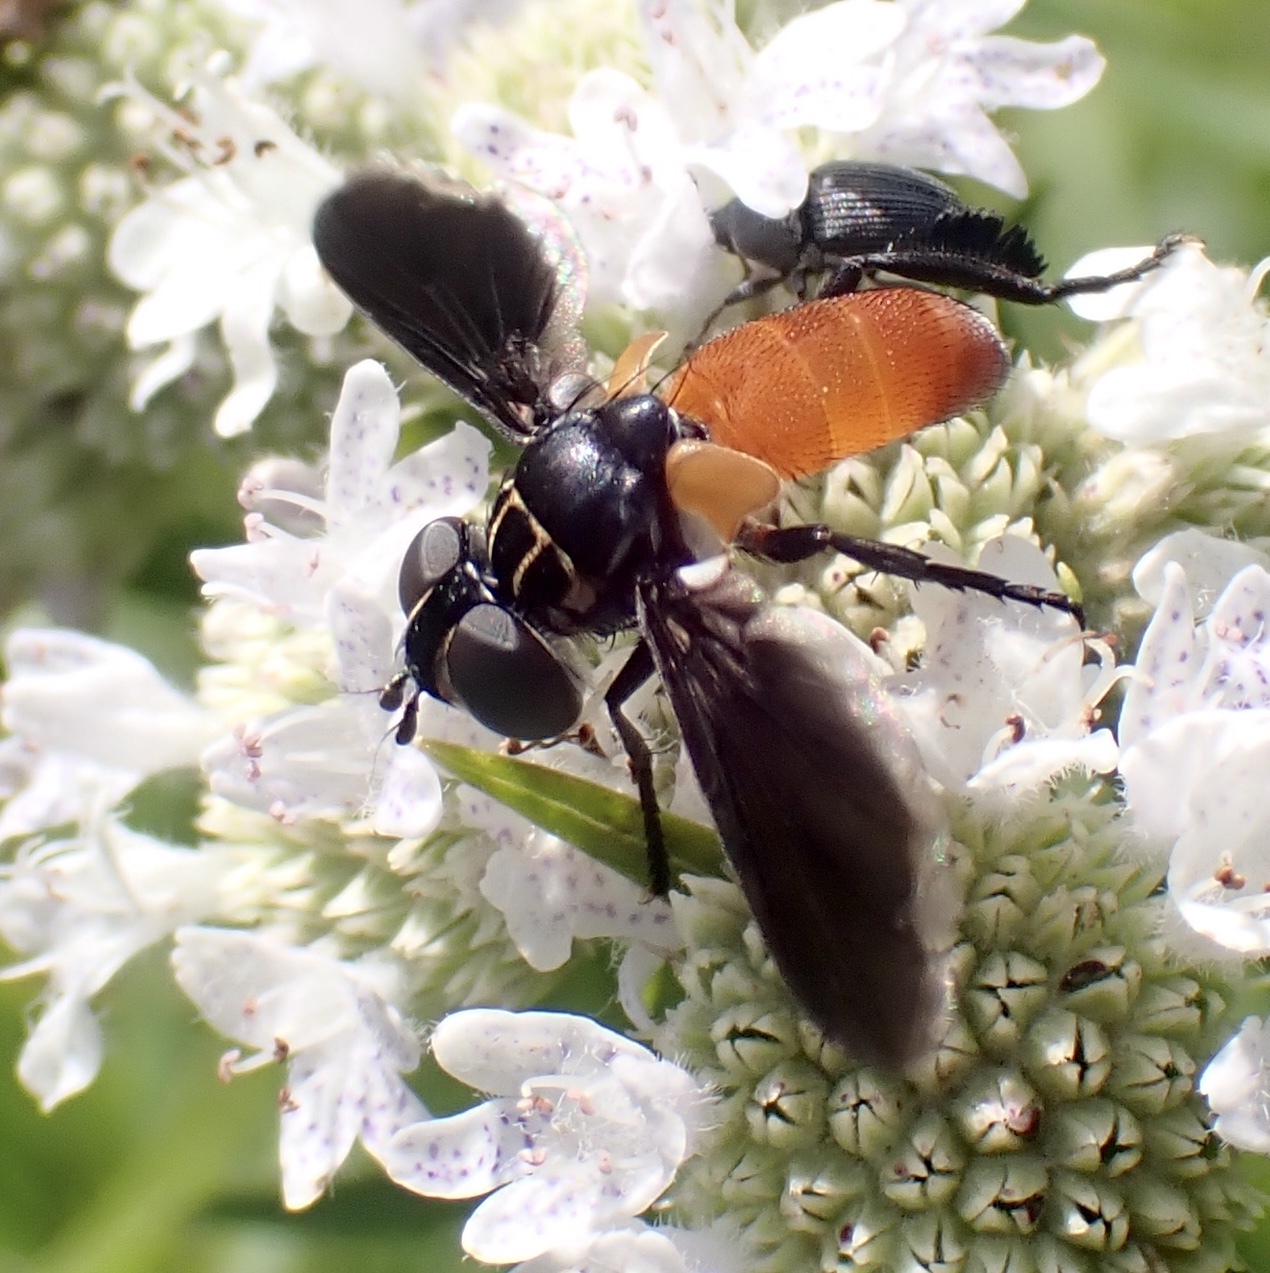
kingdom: Animalia
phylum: Arthropoda
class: Insecta
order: Diptera
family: Tachinidae
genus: Trichopoda
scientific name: Trichopoda pennipes
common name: Tachinid fly
